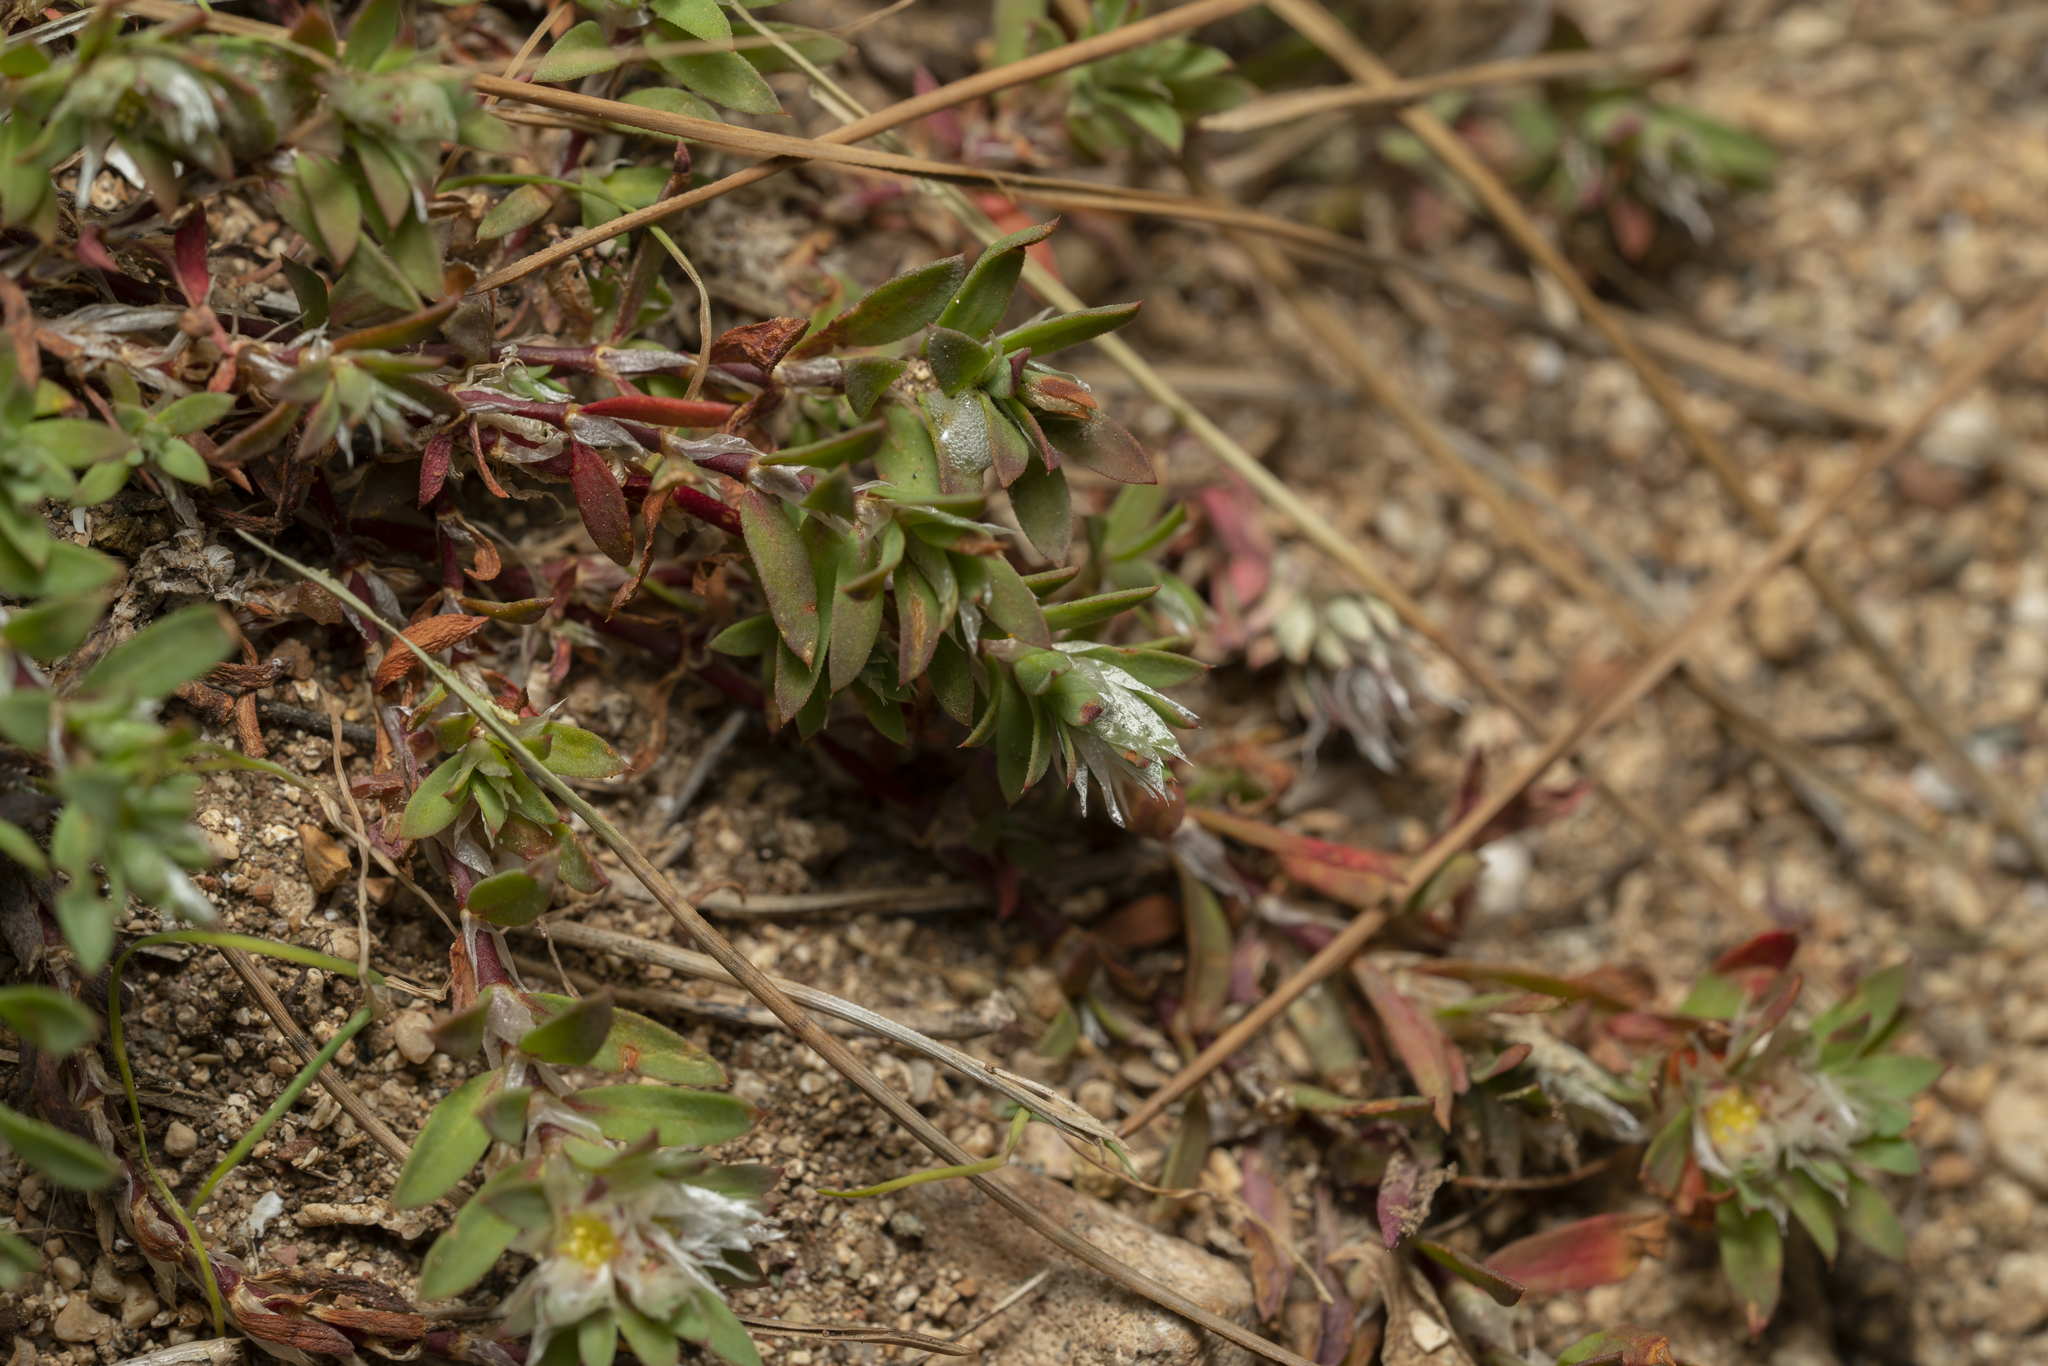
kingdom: Plantae
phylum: Tracheophyta
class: Magnoliopsida
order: Caryophyllales
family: Caryophyllaceae
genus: Paronychia
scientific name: Paronychia argentea
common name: Silver nailroot
